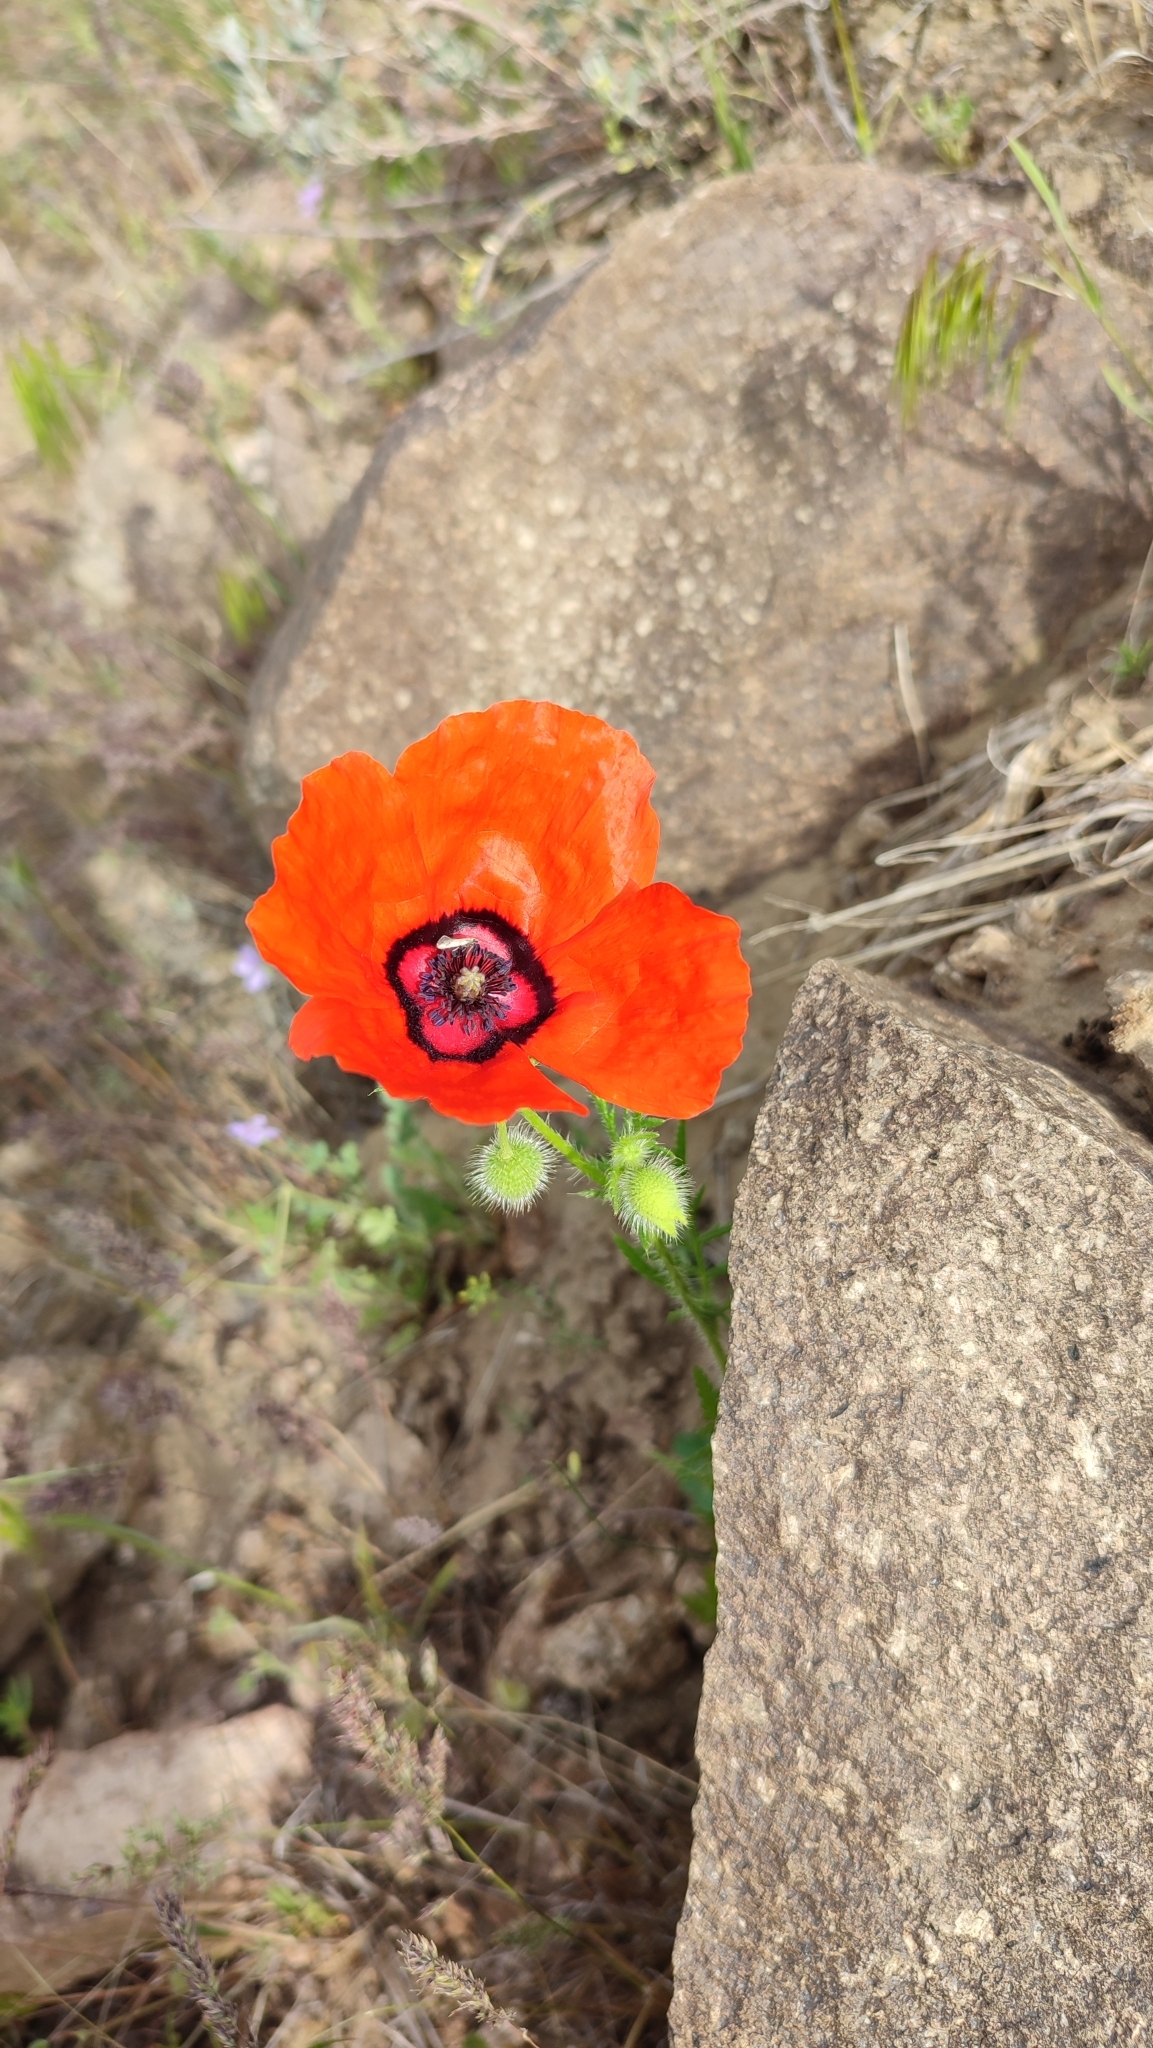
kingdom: Plantae
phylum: Tracheophyta
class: Magnoliopsida
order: Ranunculales
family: Papaveraceae
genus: Roemeria
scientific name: Roemeria pavonina
